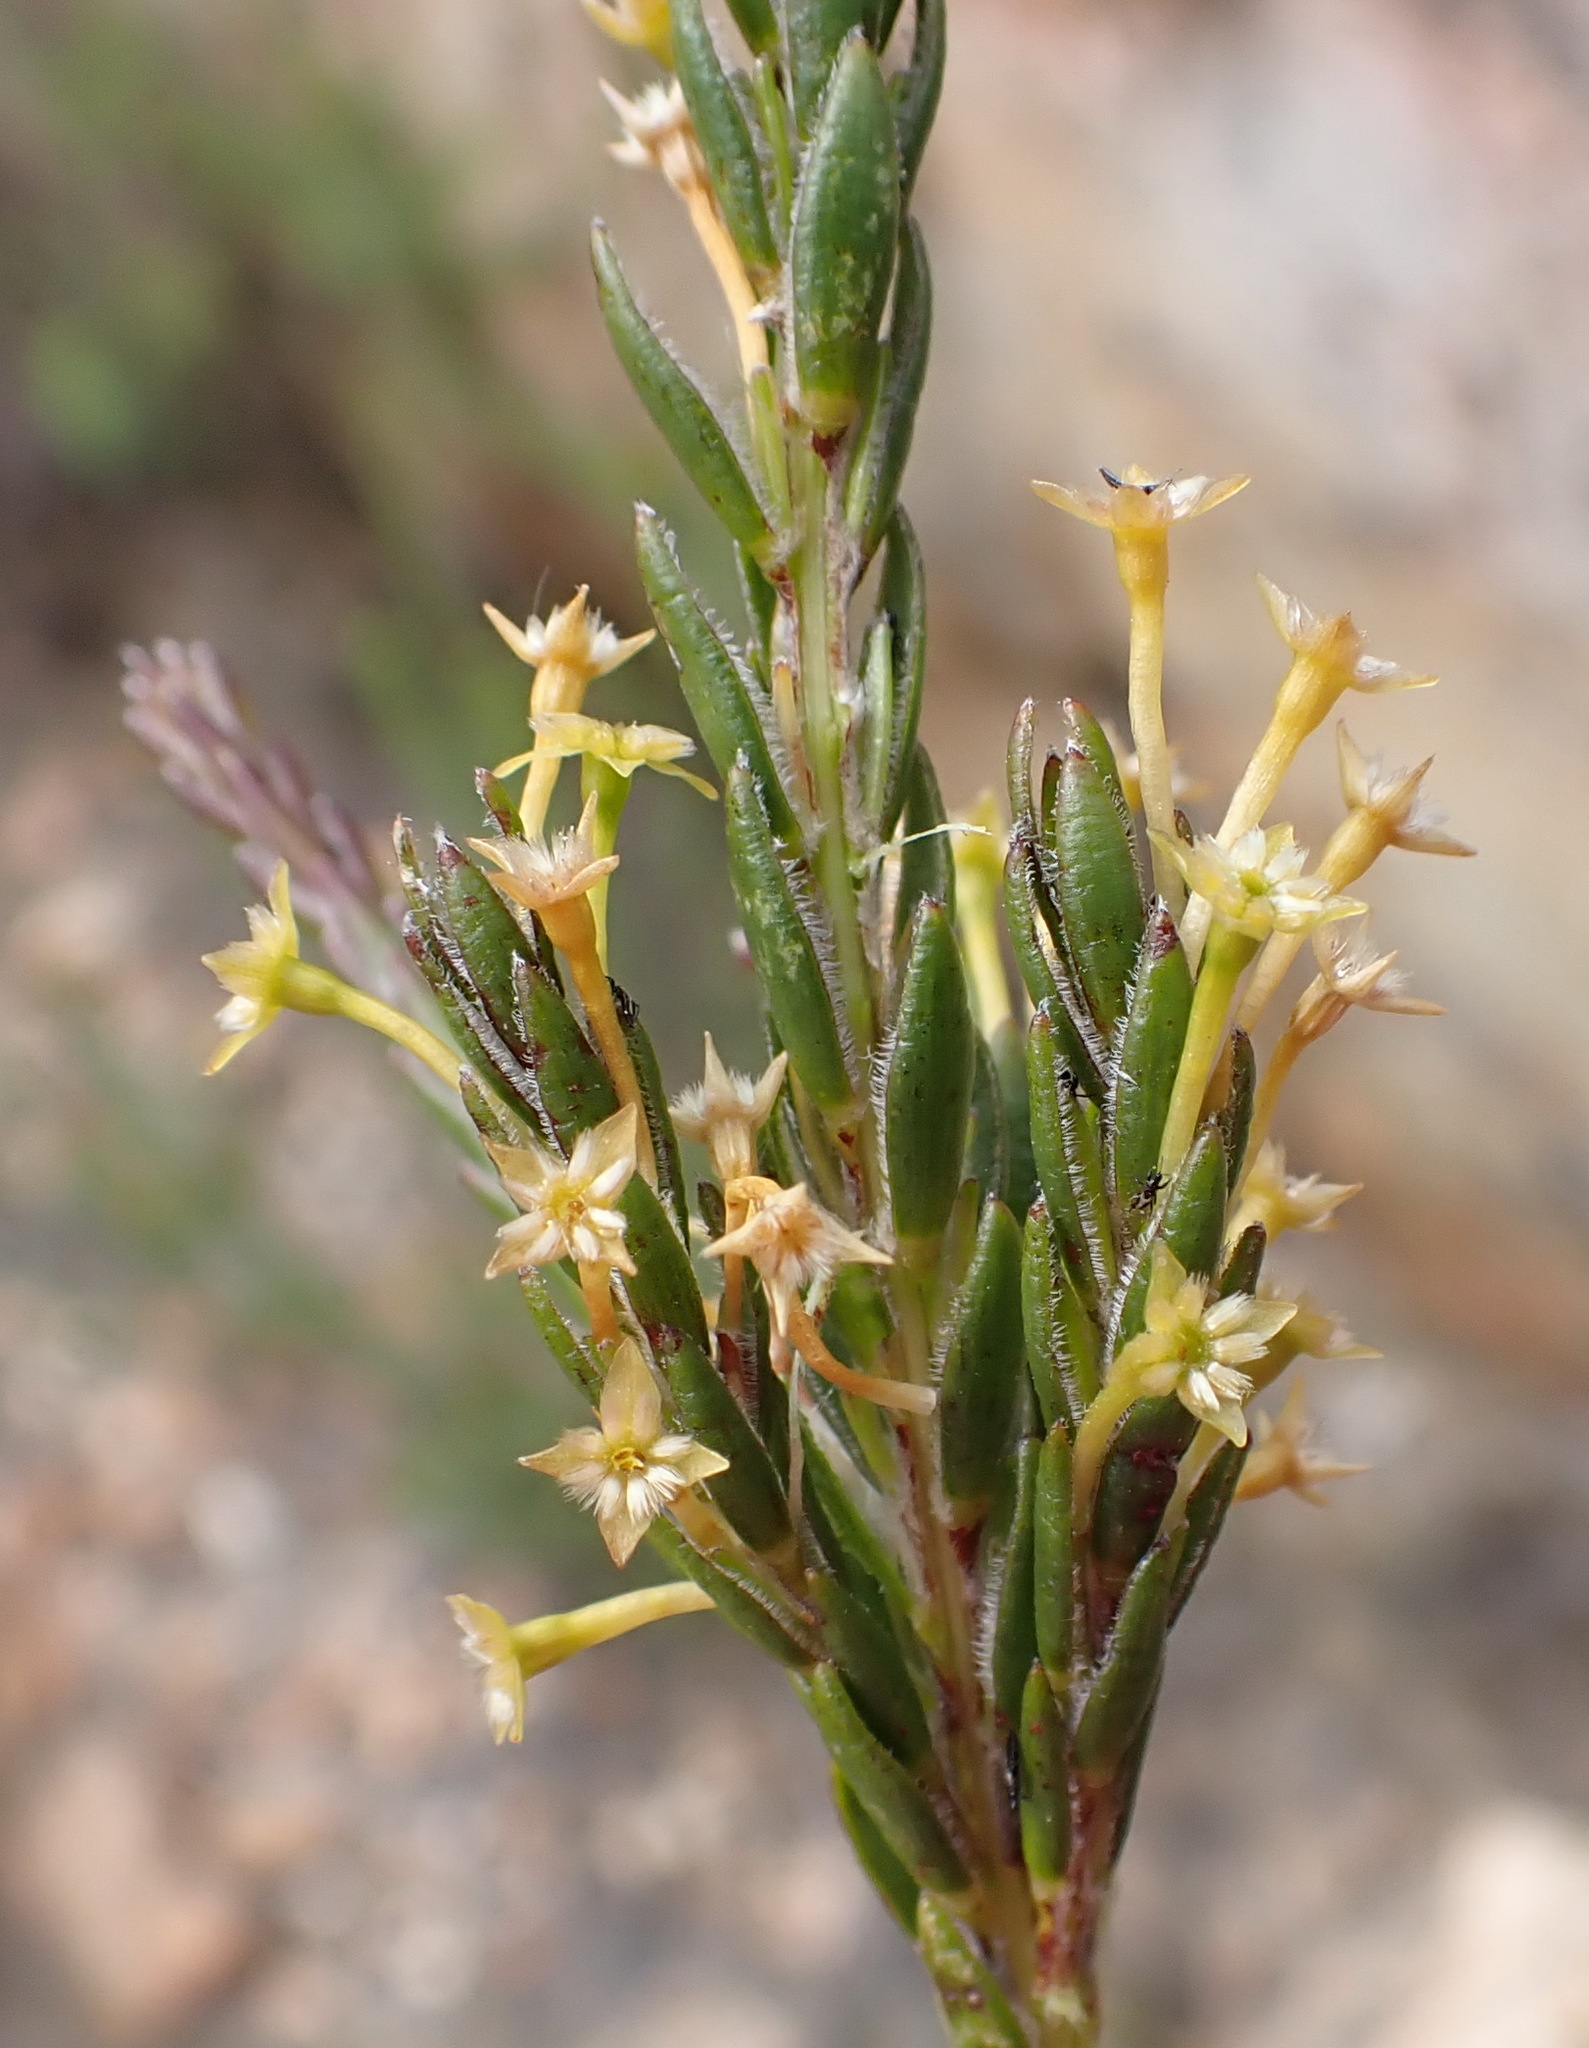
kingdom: Plantae
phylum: Tracheophyta
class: Magnoliopsida
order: Malvales
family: Thymelaeaceae
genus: Struthiola
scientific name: Struthiola parviflora
